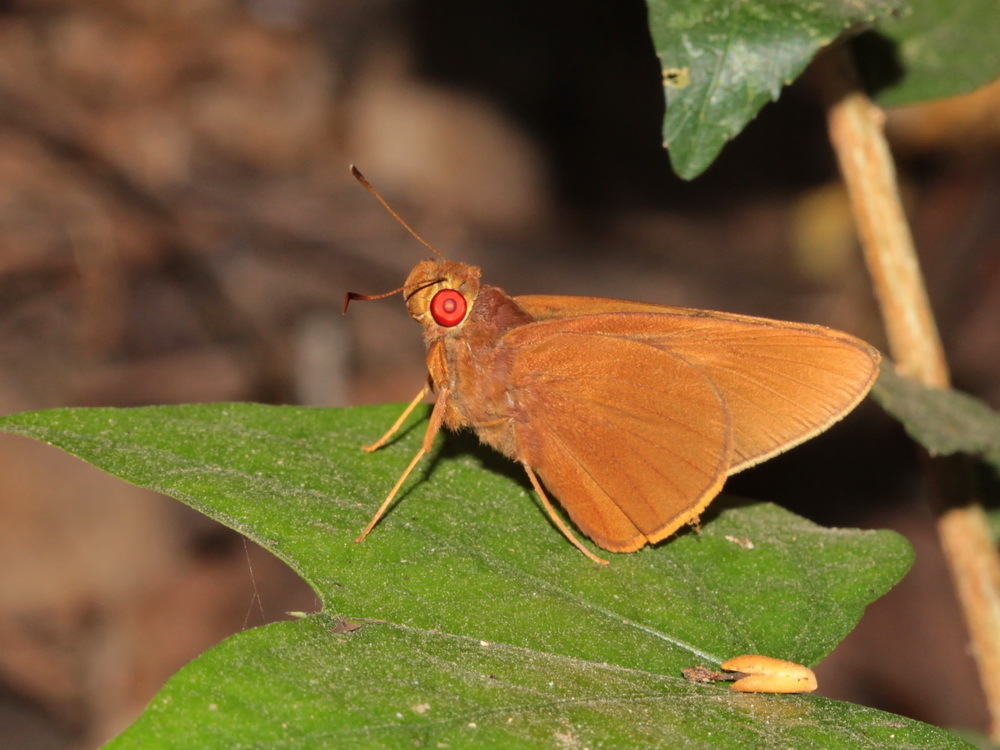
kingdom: Animalia
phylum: Arthropoda
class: Insecta
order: Lepidoptera
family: Hesperiidae
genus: Matapa
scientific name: Matapa aria
